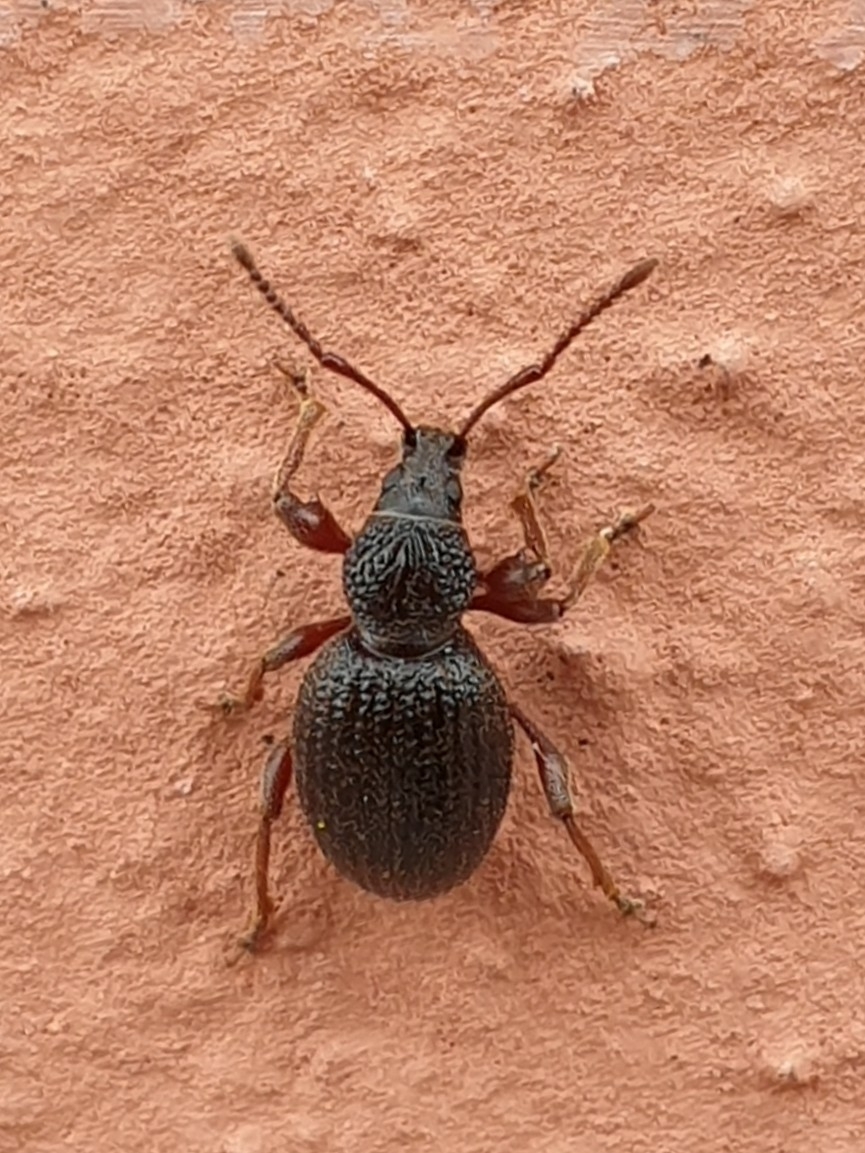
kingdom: Animalia
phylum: Arthropoda
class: Insecta
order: Coleoptera
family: Curculionidae
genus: Otiorhynchus
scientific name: Otiorhynchus ovatus
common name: Strawberry root weevil
